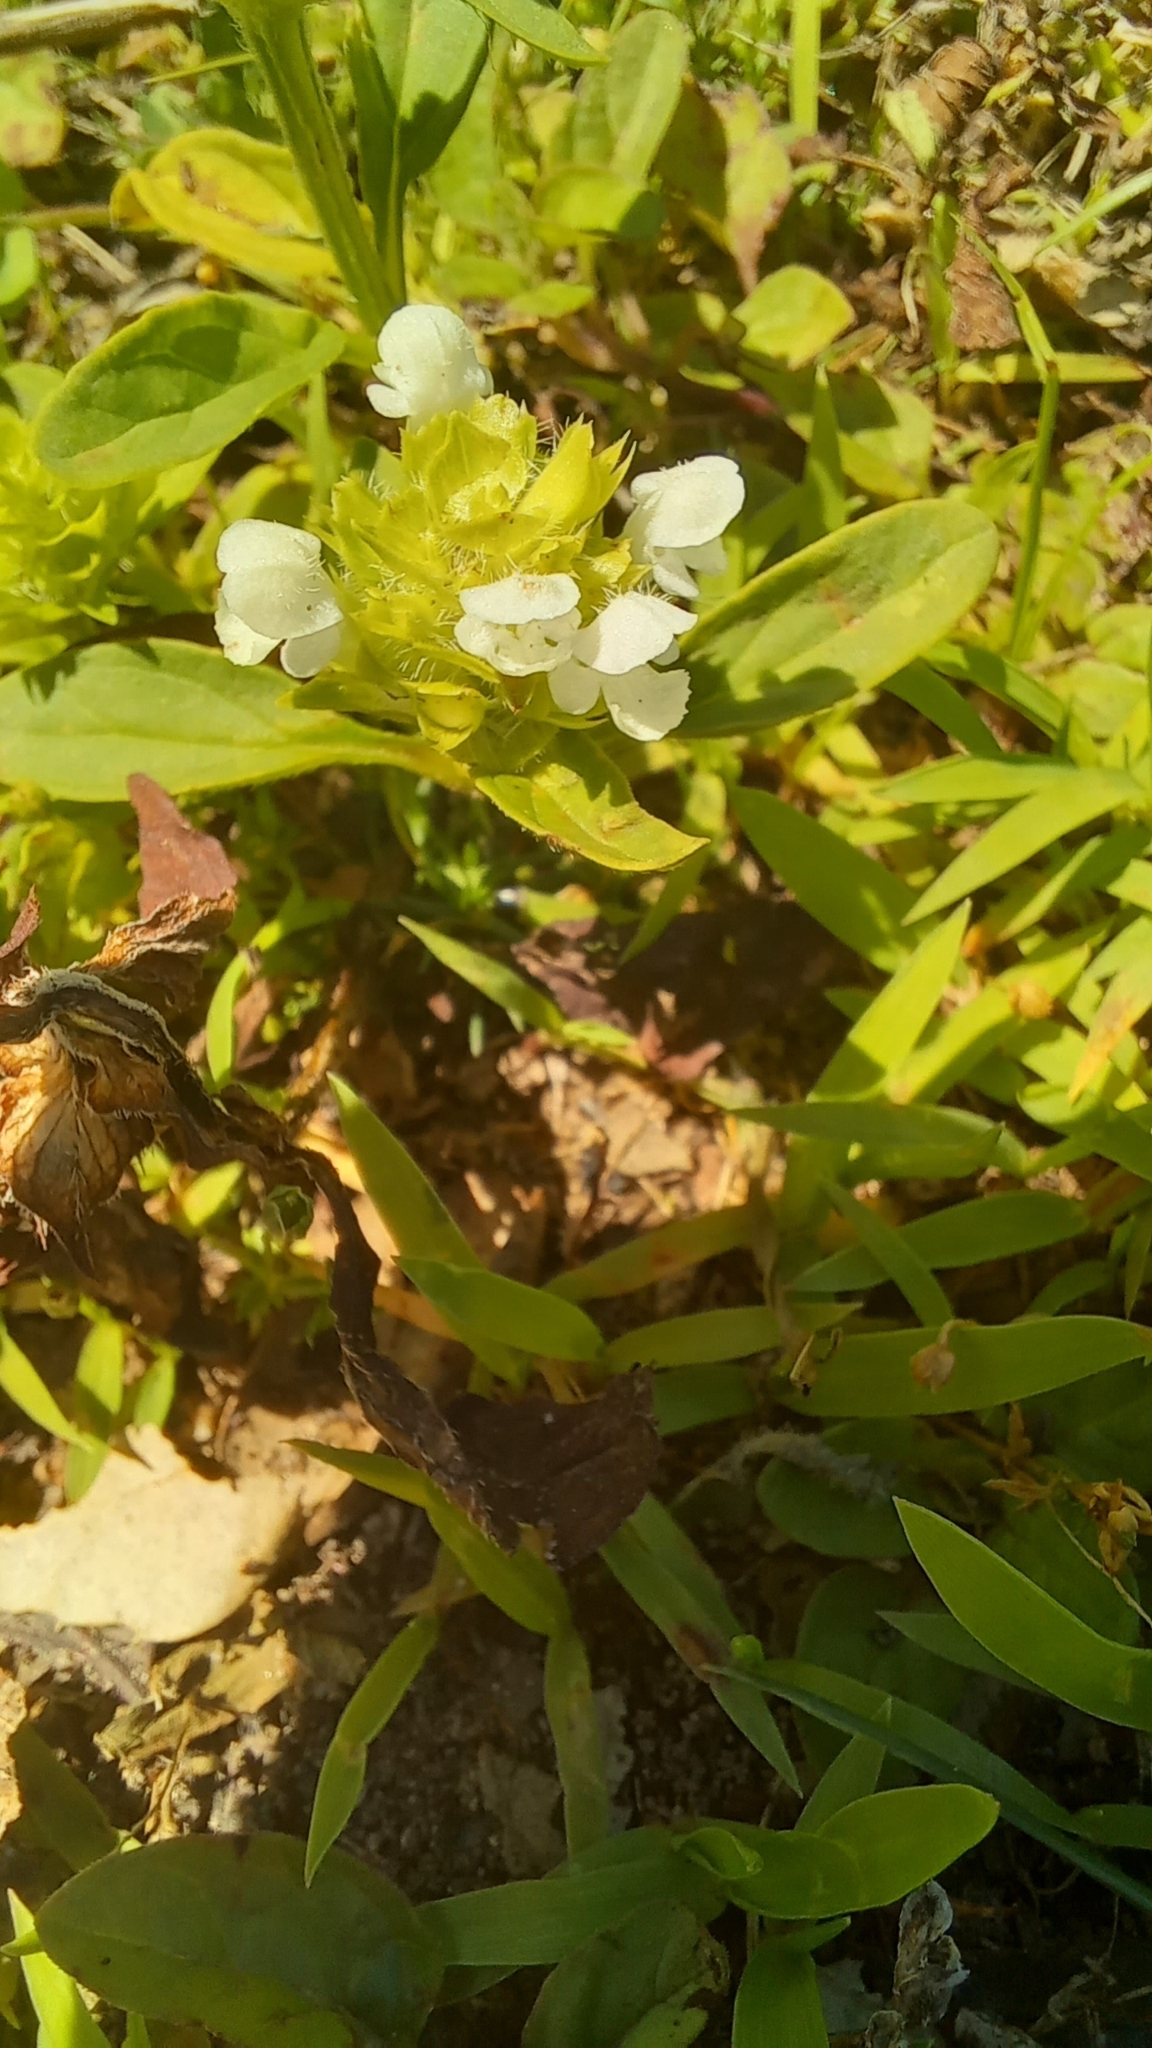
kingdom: Plantae
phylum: Tracheophyta
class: Magnoliopsida
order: Lamiales
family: Lamiaceae
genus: Prunella
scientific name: Prunella vulgaris
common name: Heal-all
